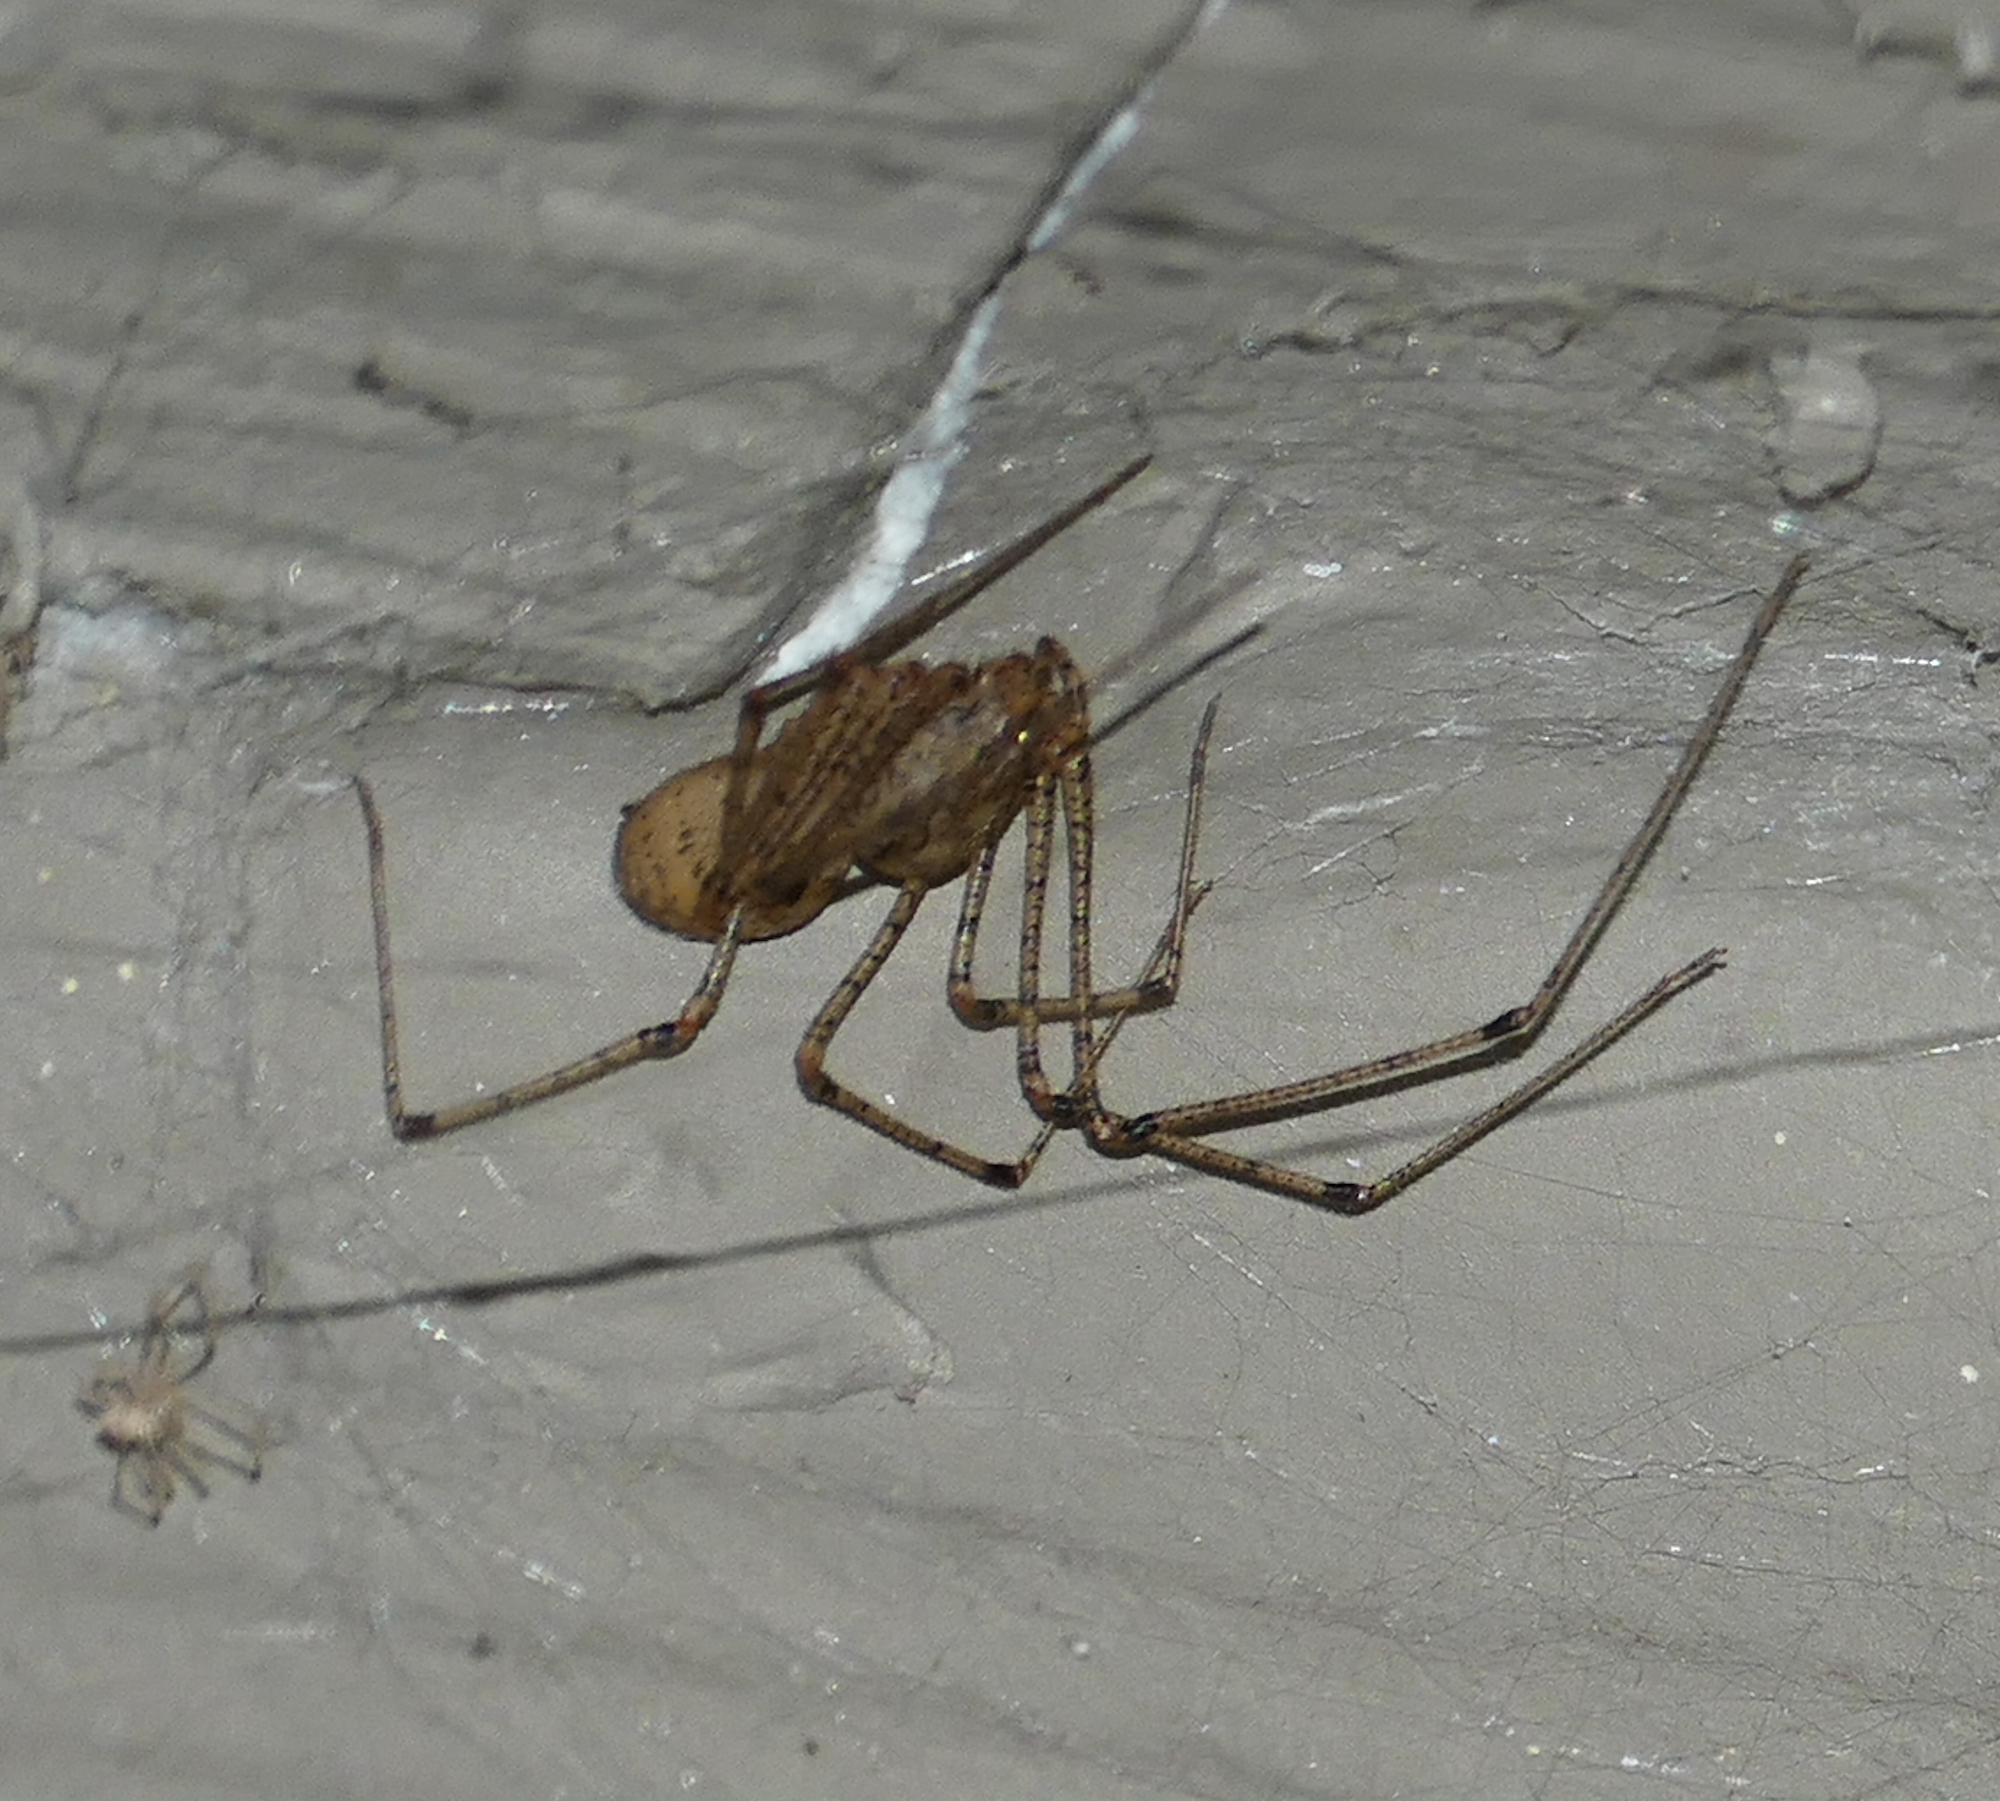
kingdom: Animalia
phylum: Arthropoda
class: Arachnida
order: Araneae
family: Scytodidae
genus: Scytodes
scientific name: Scytodes atlacoya
